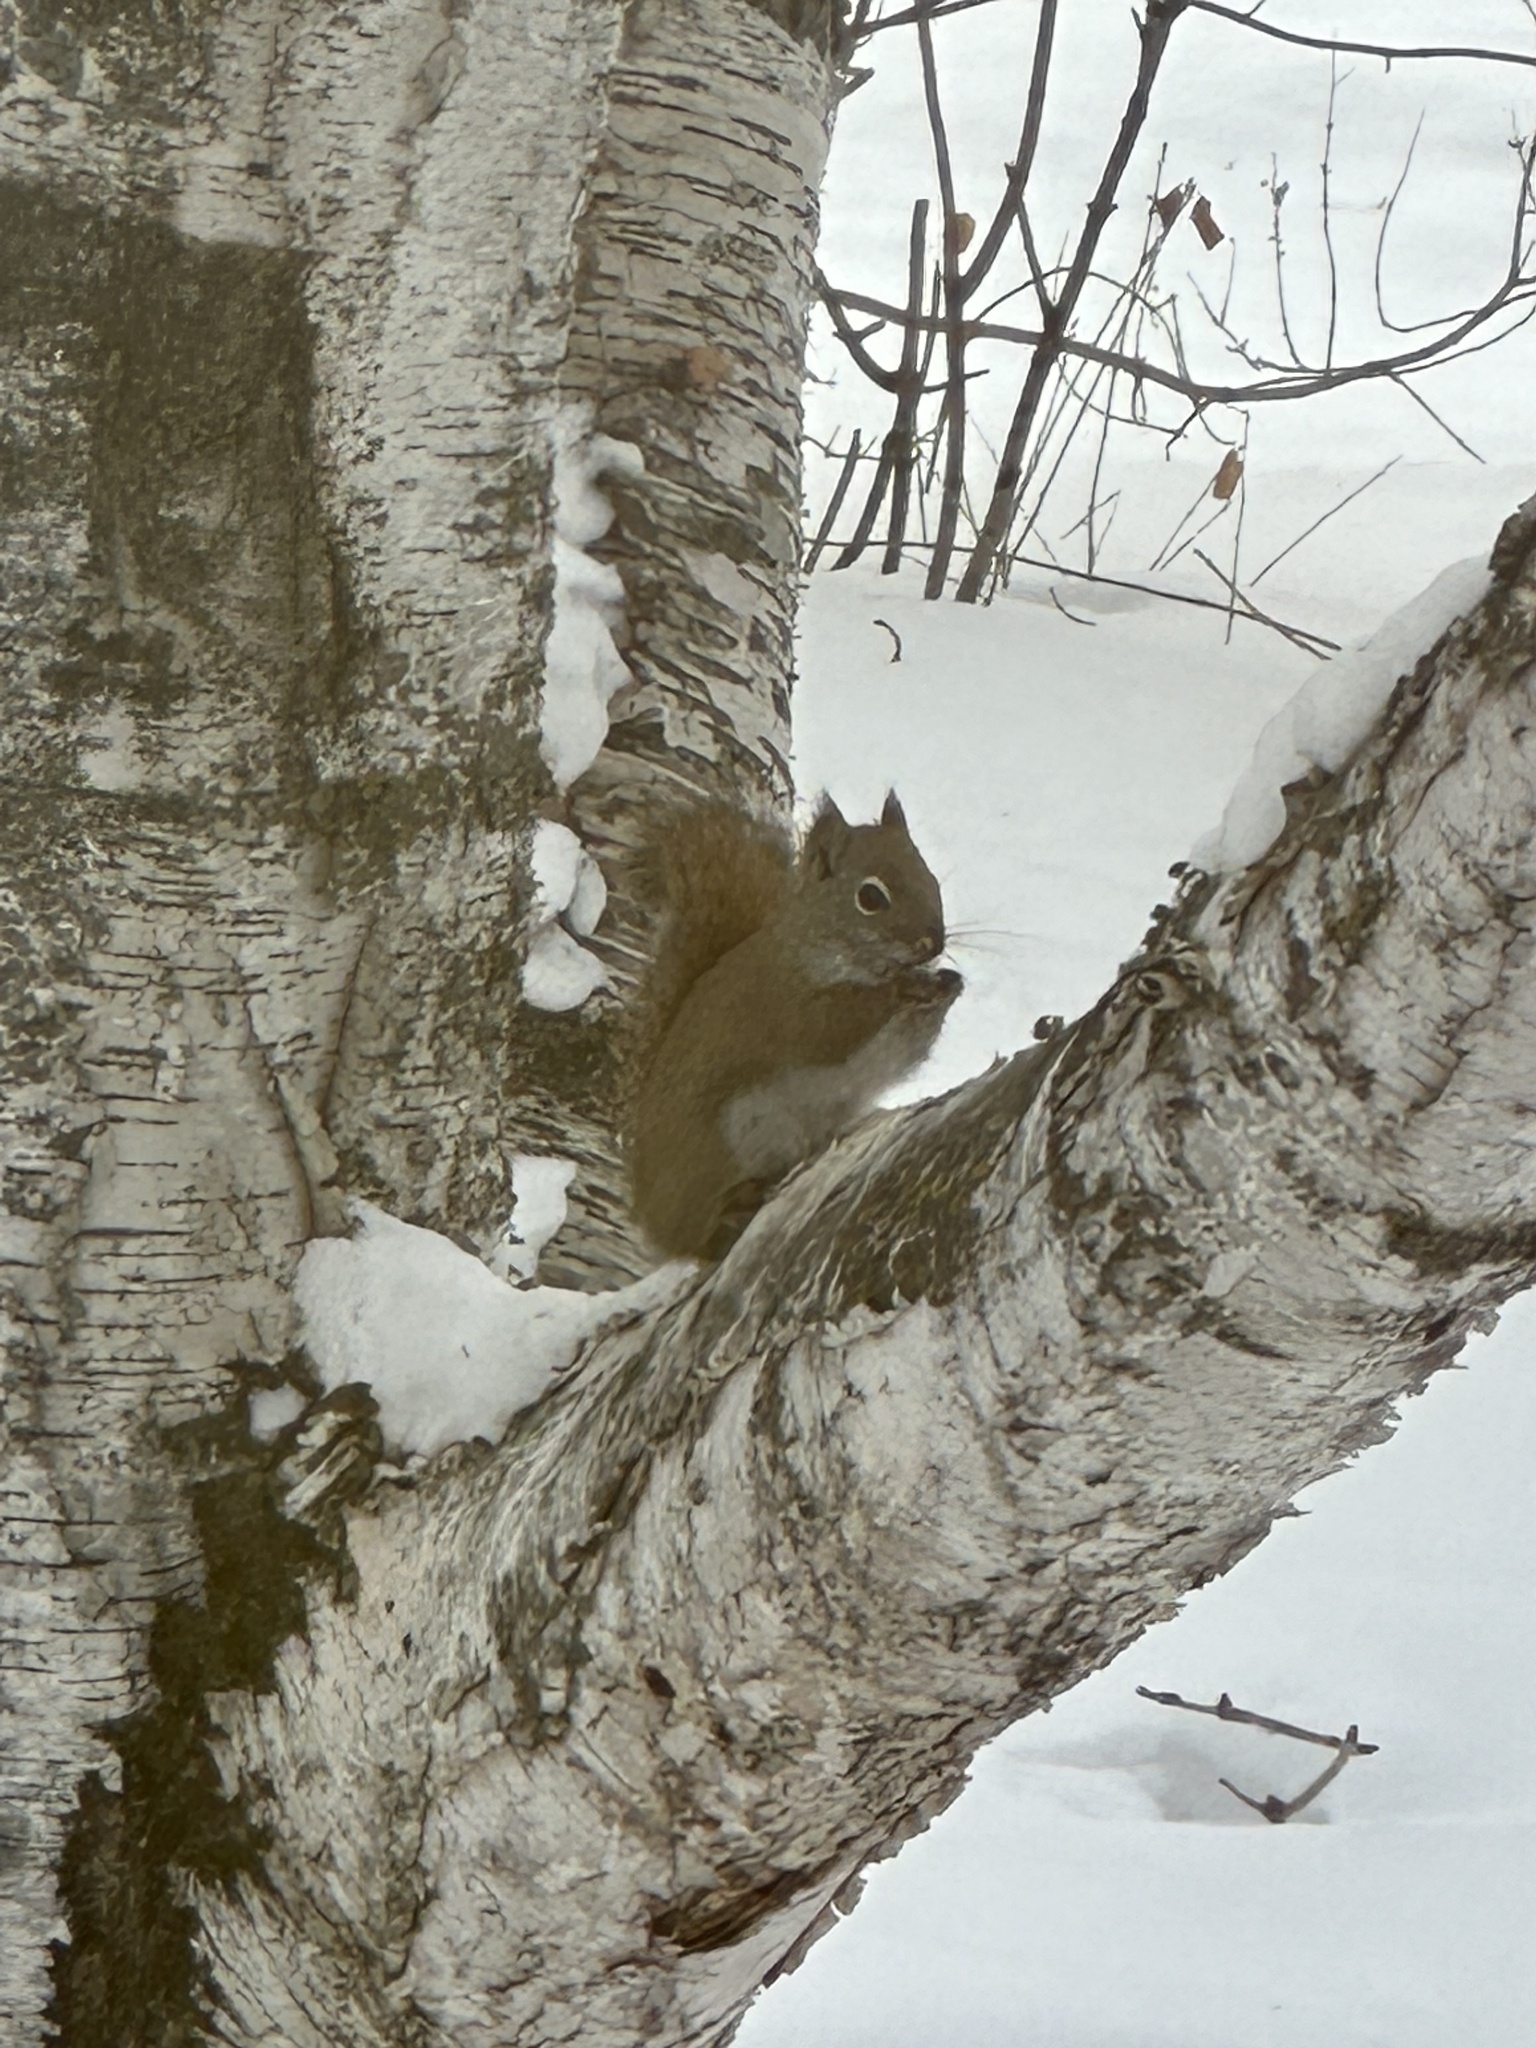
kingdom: Animalia
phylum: Chordata
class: Mammalia
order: Rodentia
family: Sciuridae
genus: Tamiasciurus
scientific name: Tamiasciurus hudsonicus
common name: Red squirrel
